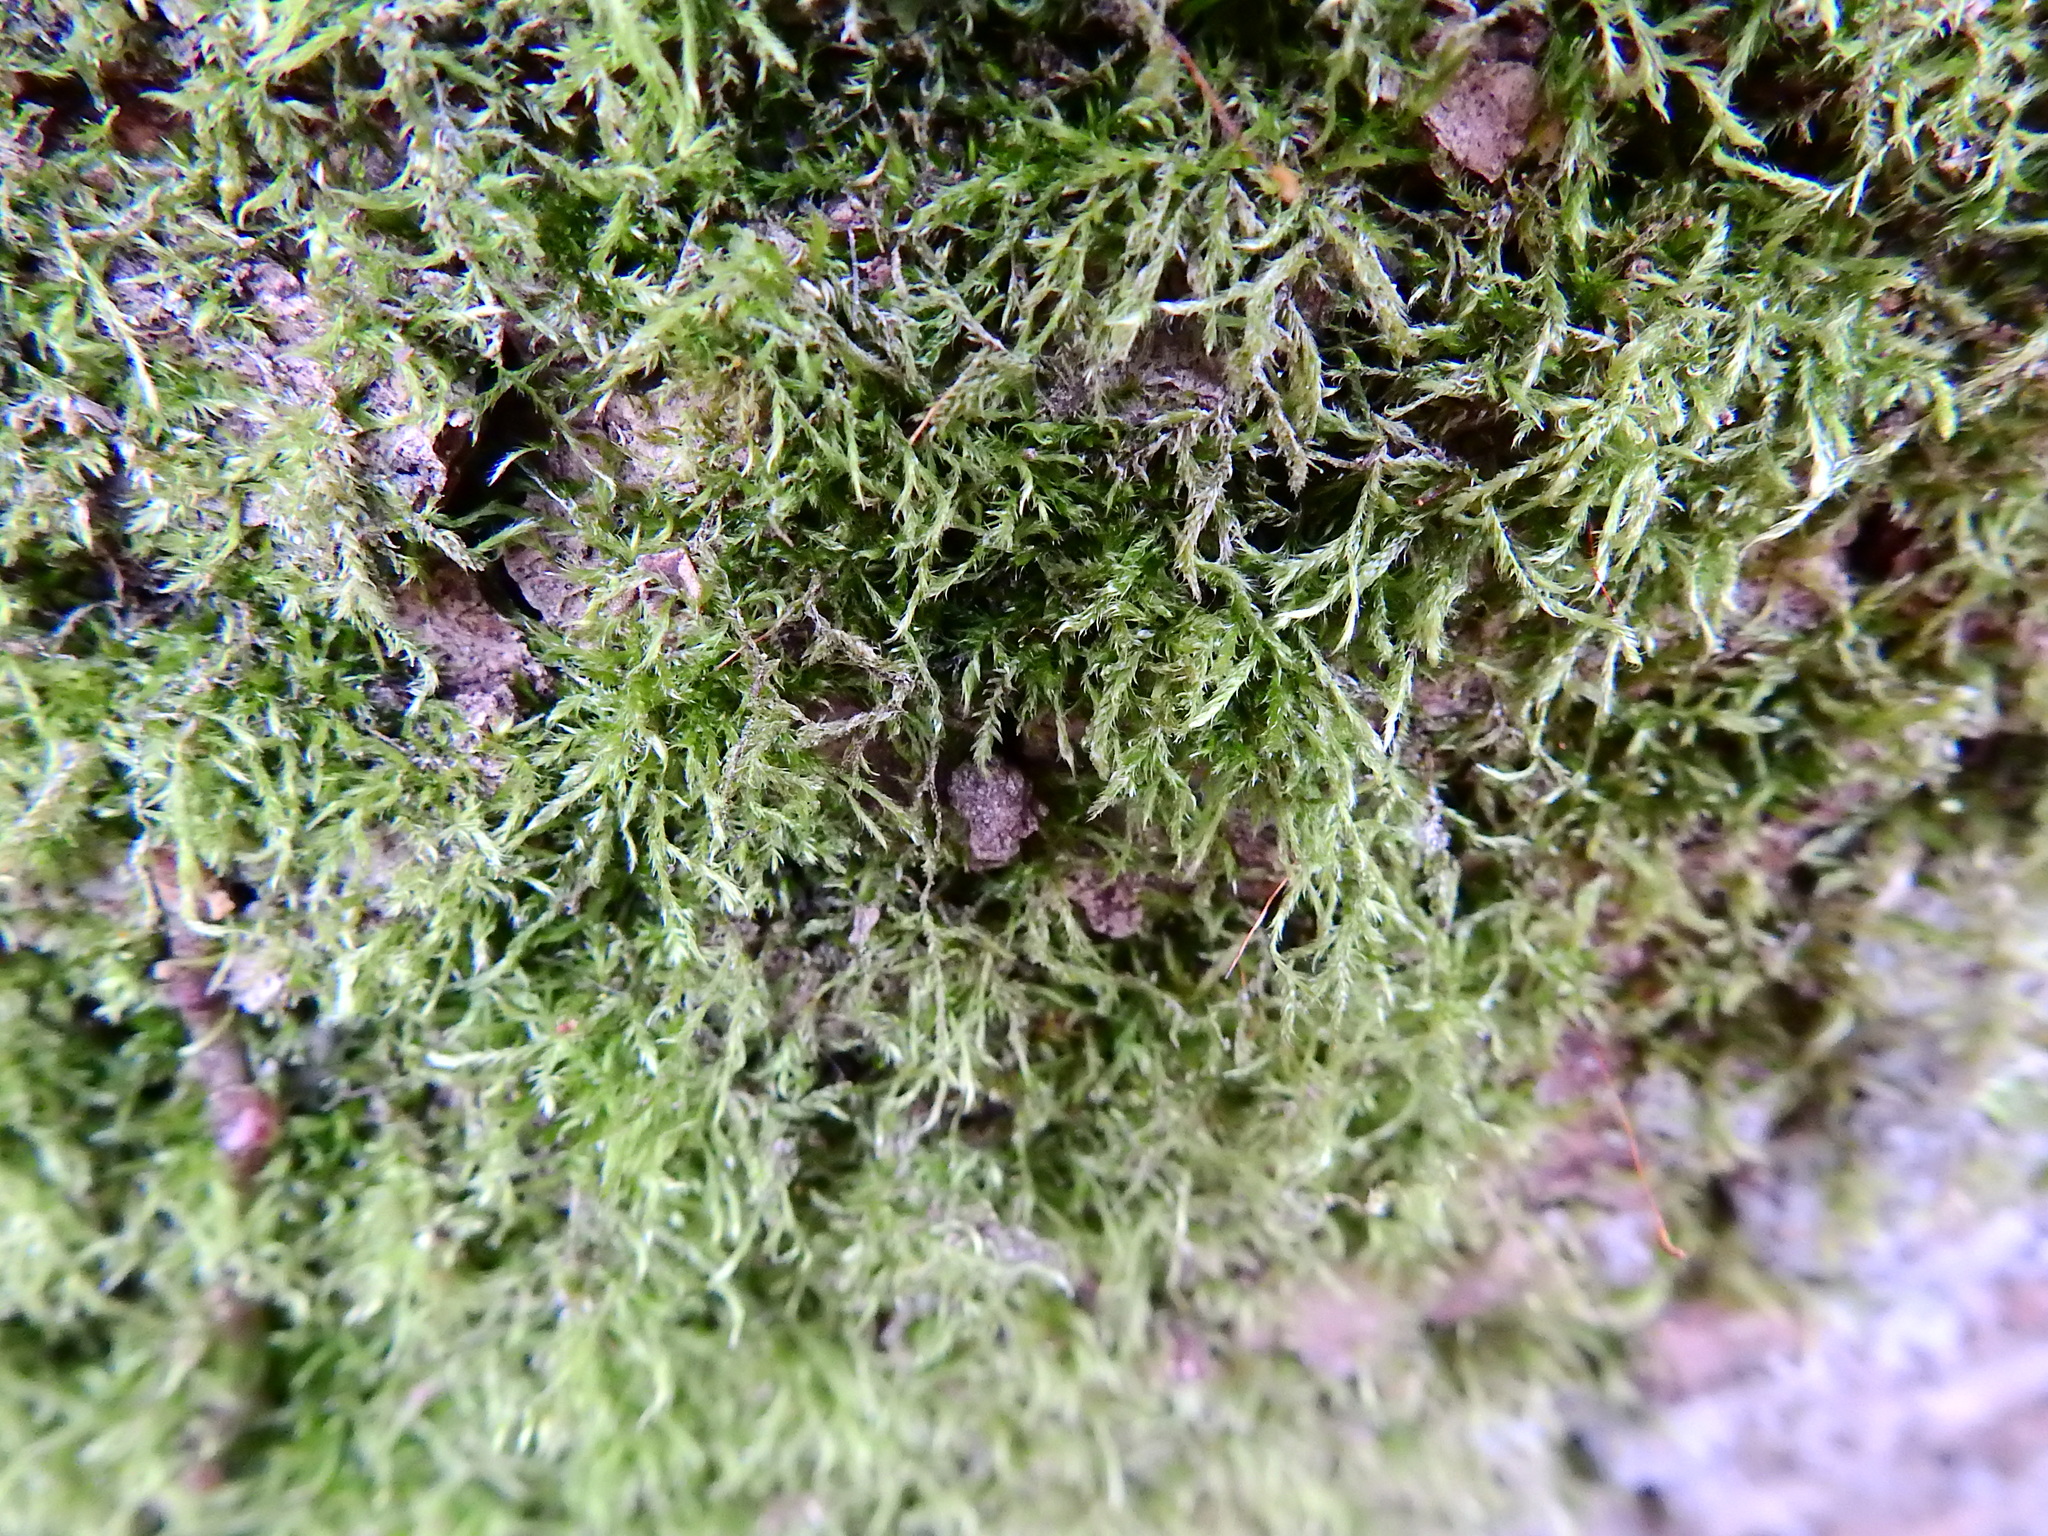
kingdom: Plantae
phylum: Bryophyta
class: Bryopsida
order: Hypnales
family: Amblystegiaceae
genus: Amblystegium
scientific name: Amblystegium serpens
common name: Jurkatzka's feather moss
